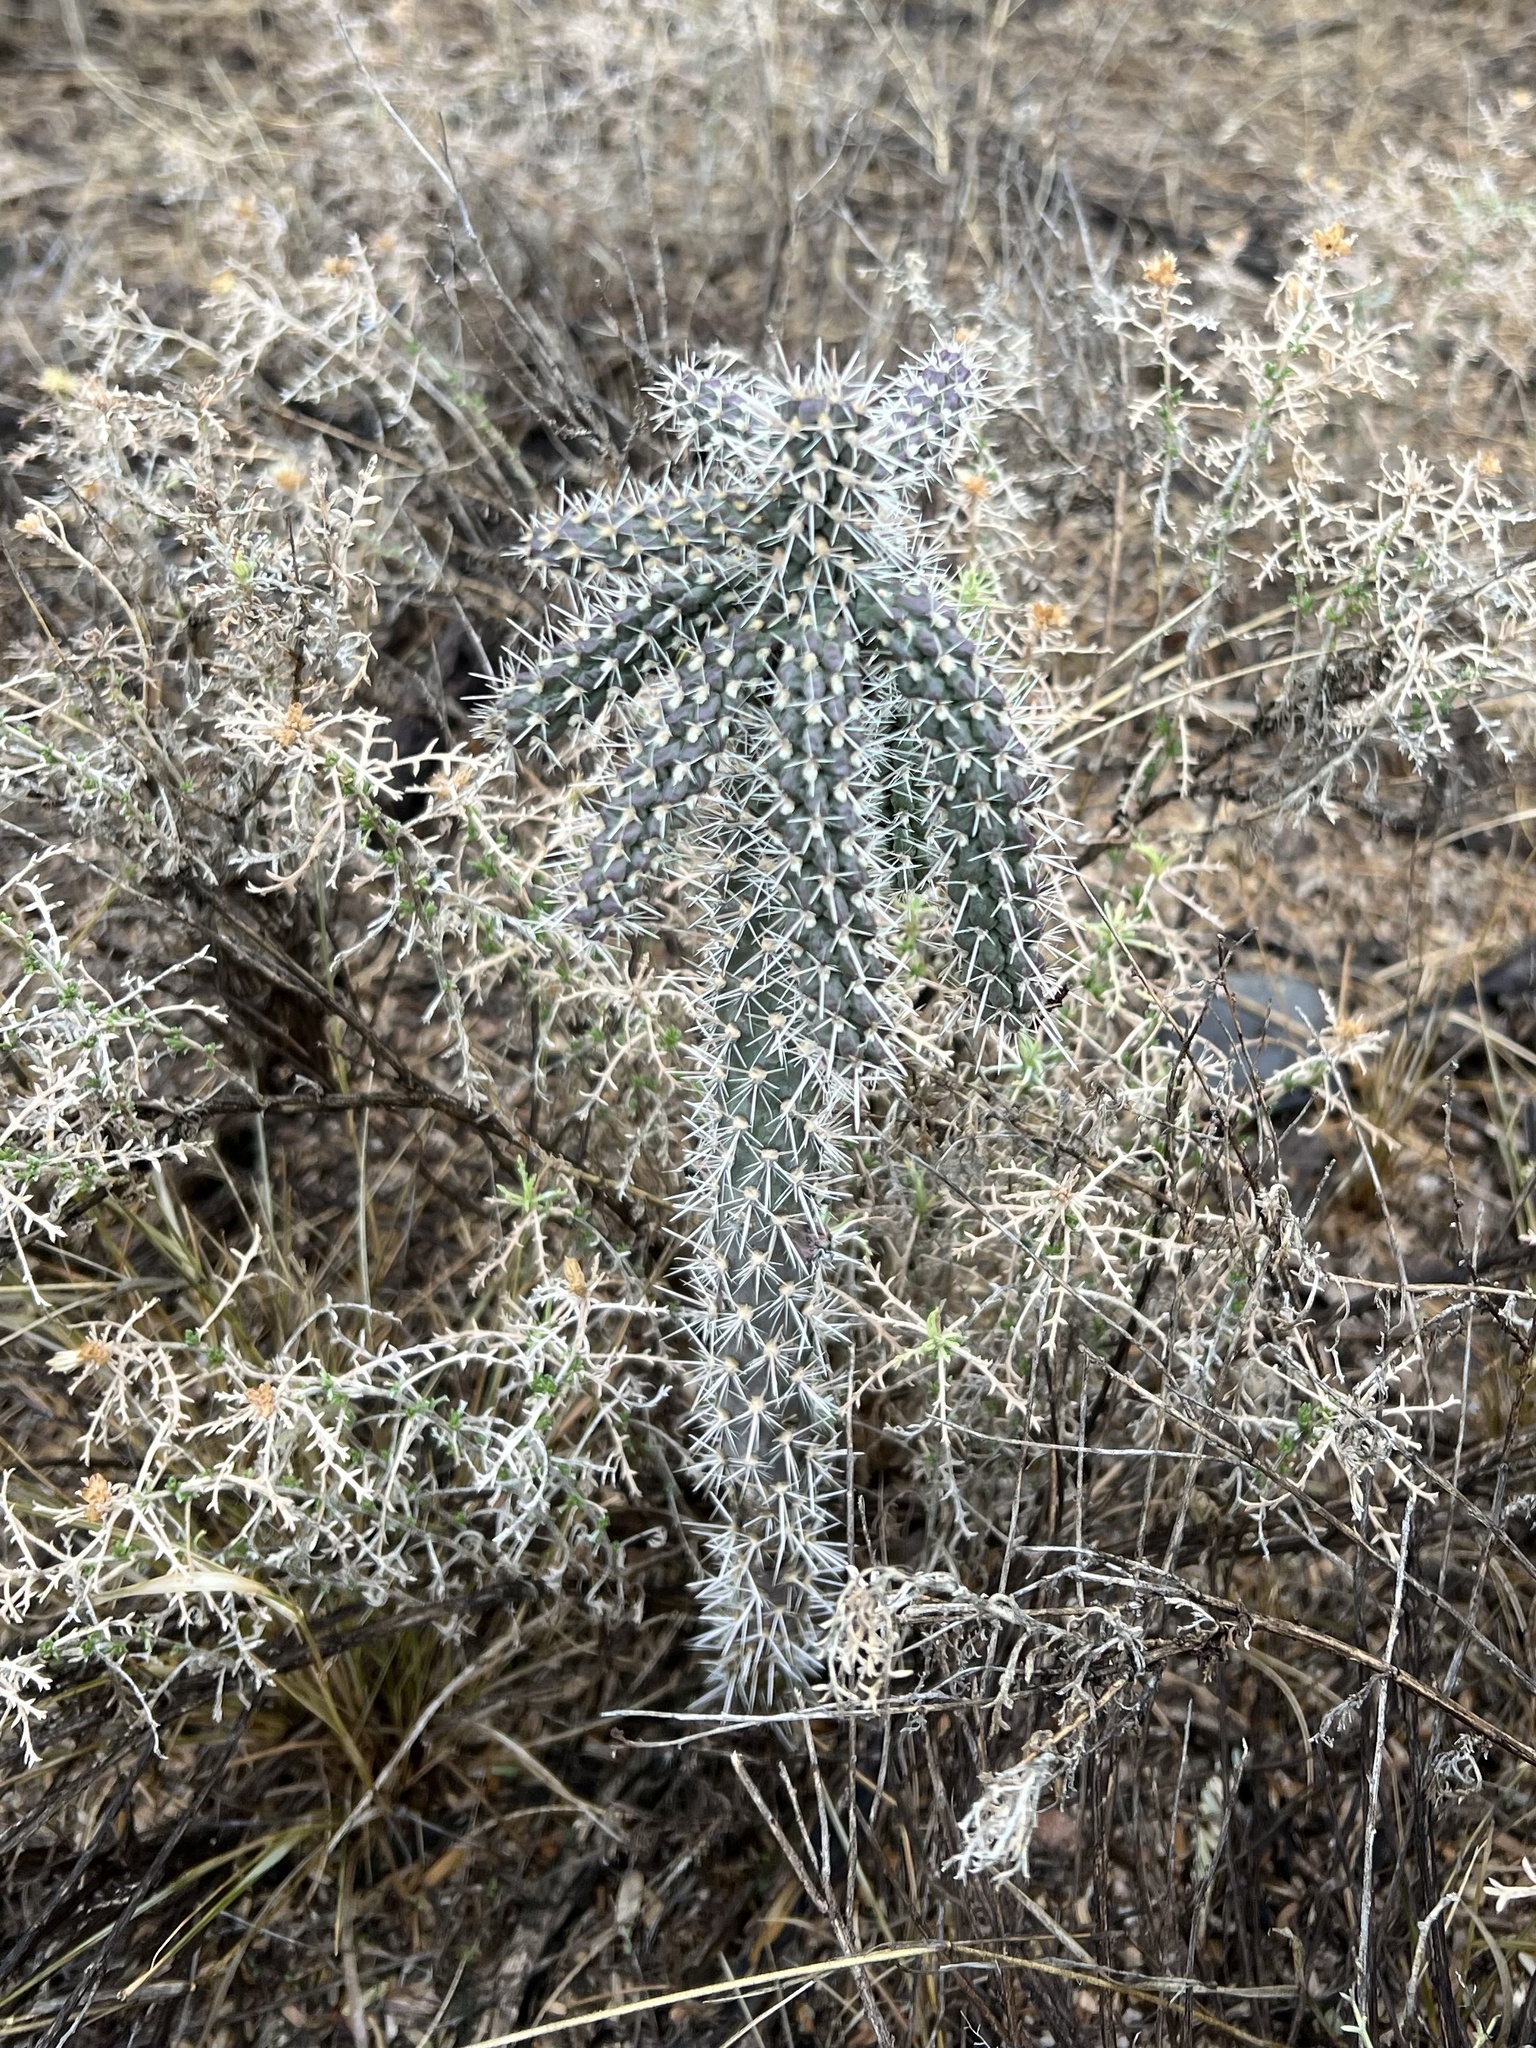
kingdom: Plantae
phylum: Tracheophyta
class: Magnoliopsida
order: Caryophyllales
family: Cactaceae
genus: Cylindropuntia
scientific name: Cylindropuntia imbricata
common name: Candelabrum cactus
